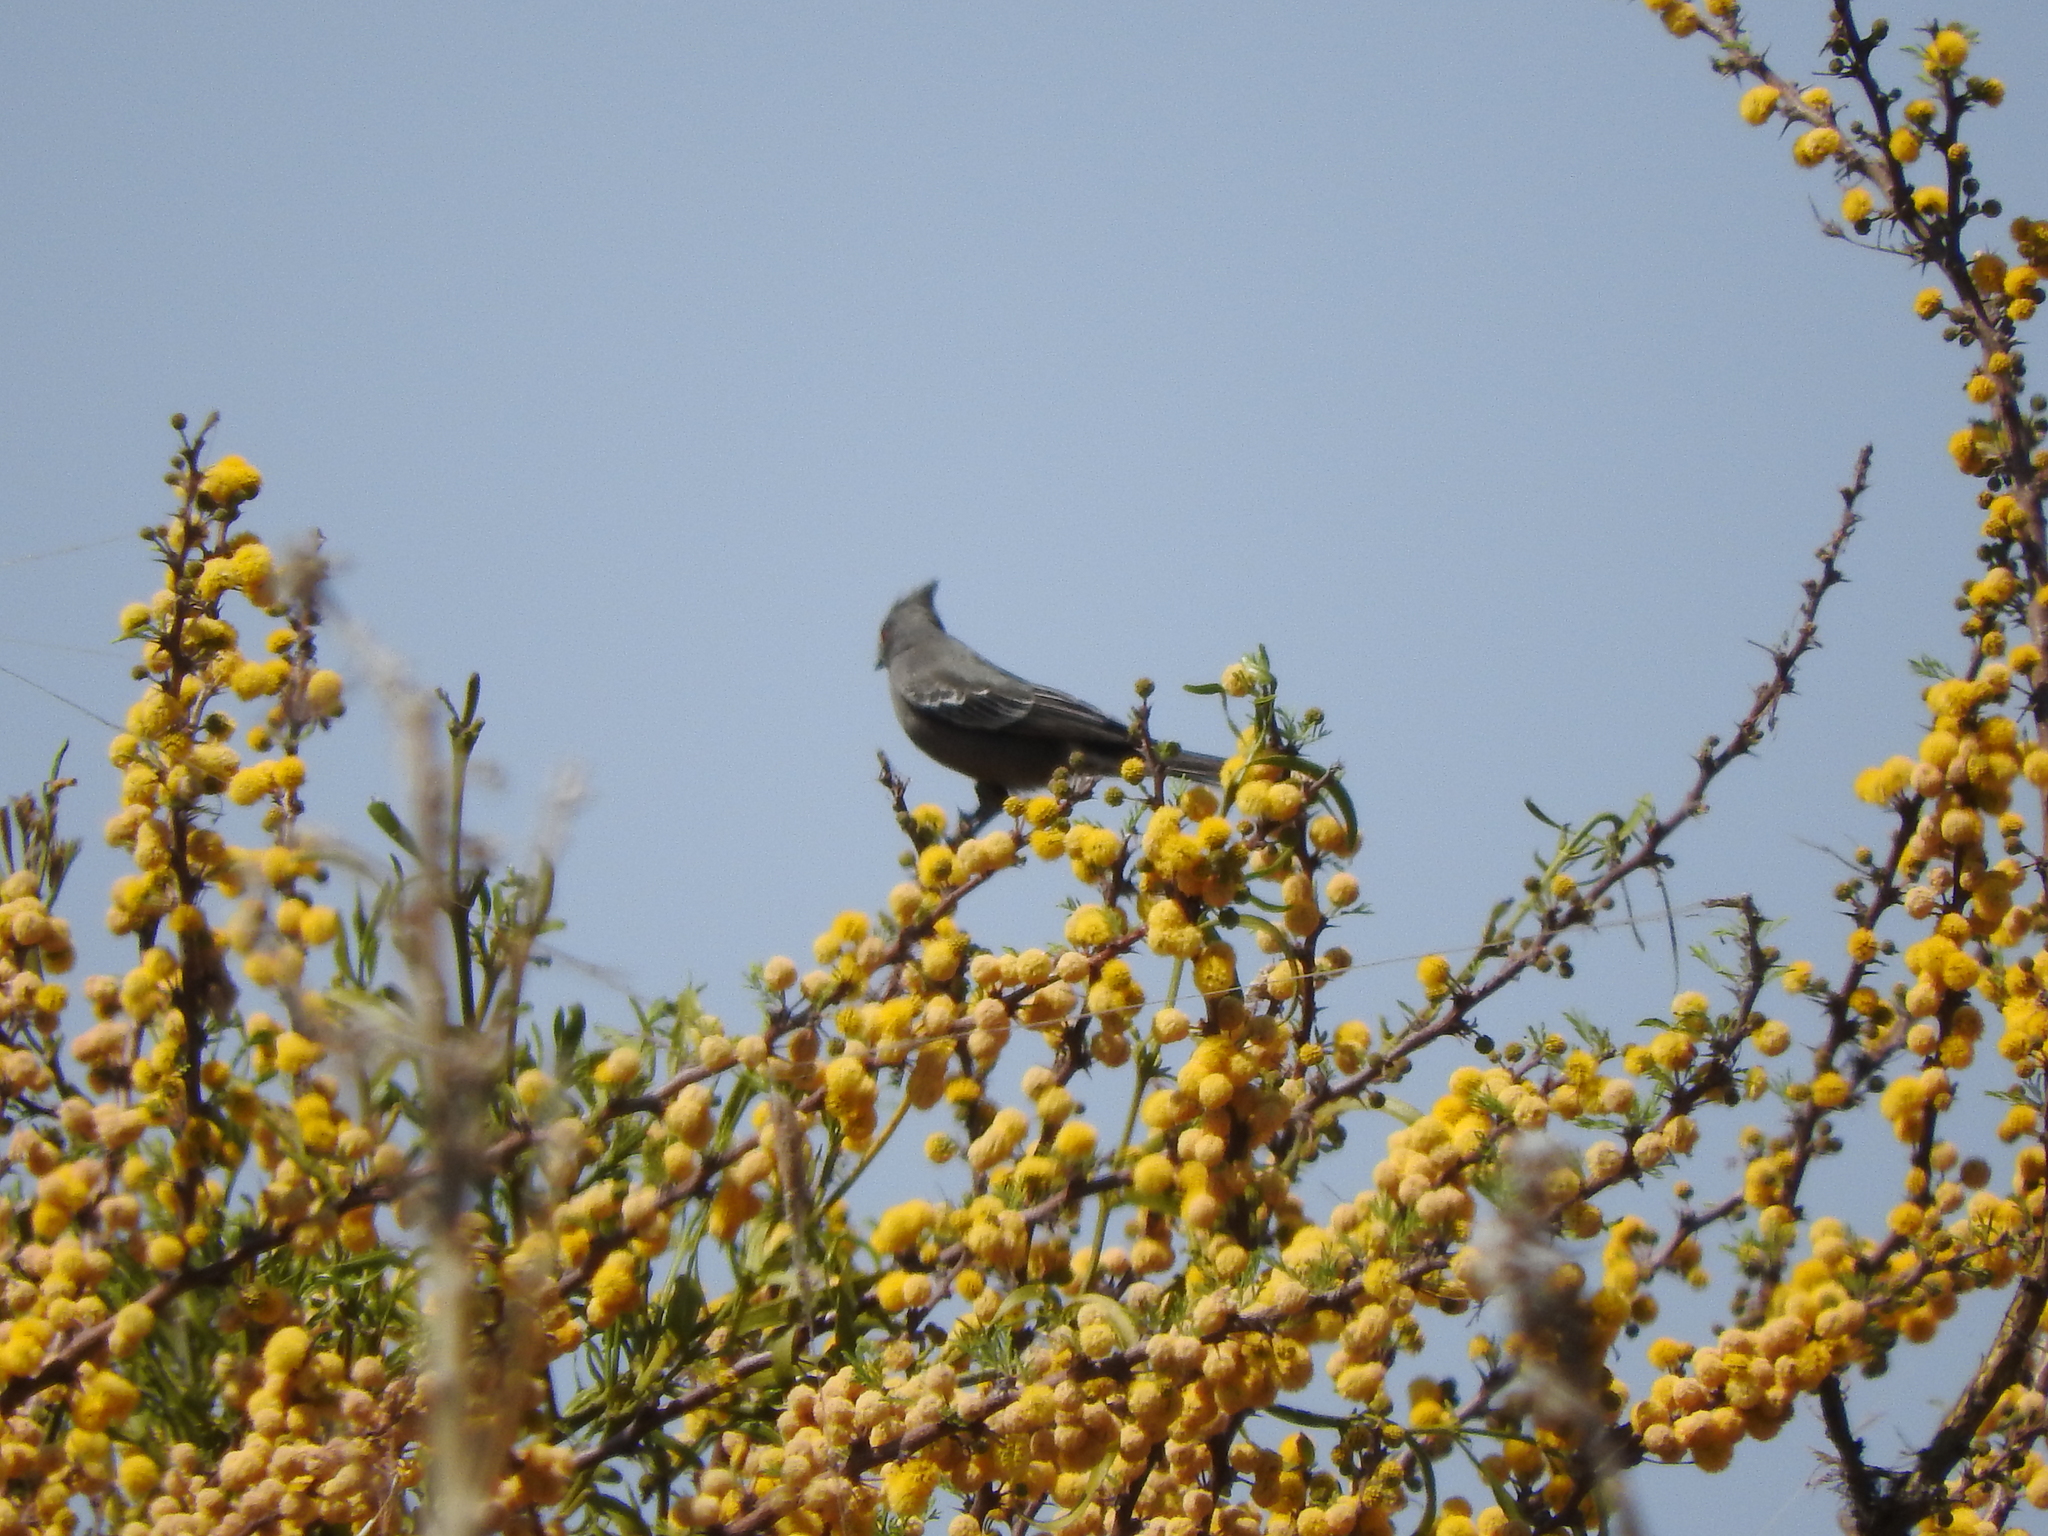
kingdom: Animalia
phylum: Chordata
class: Aves
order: Passeriformes
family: Ptilogonatidae
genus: Phainopepla
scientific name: Phainopepla nitens
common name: Phainopepla
